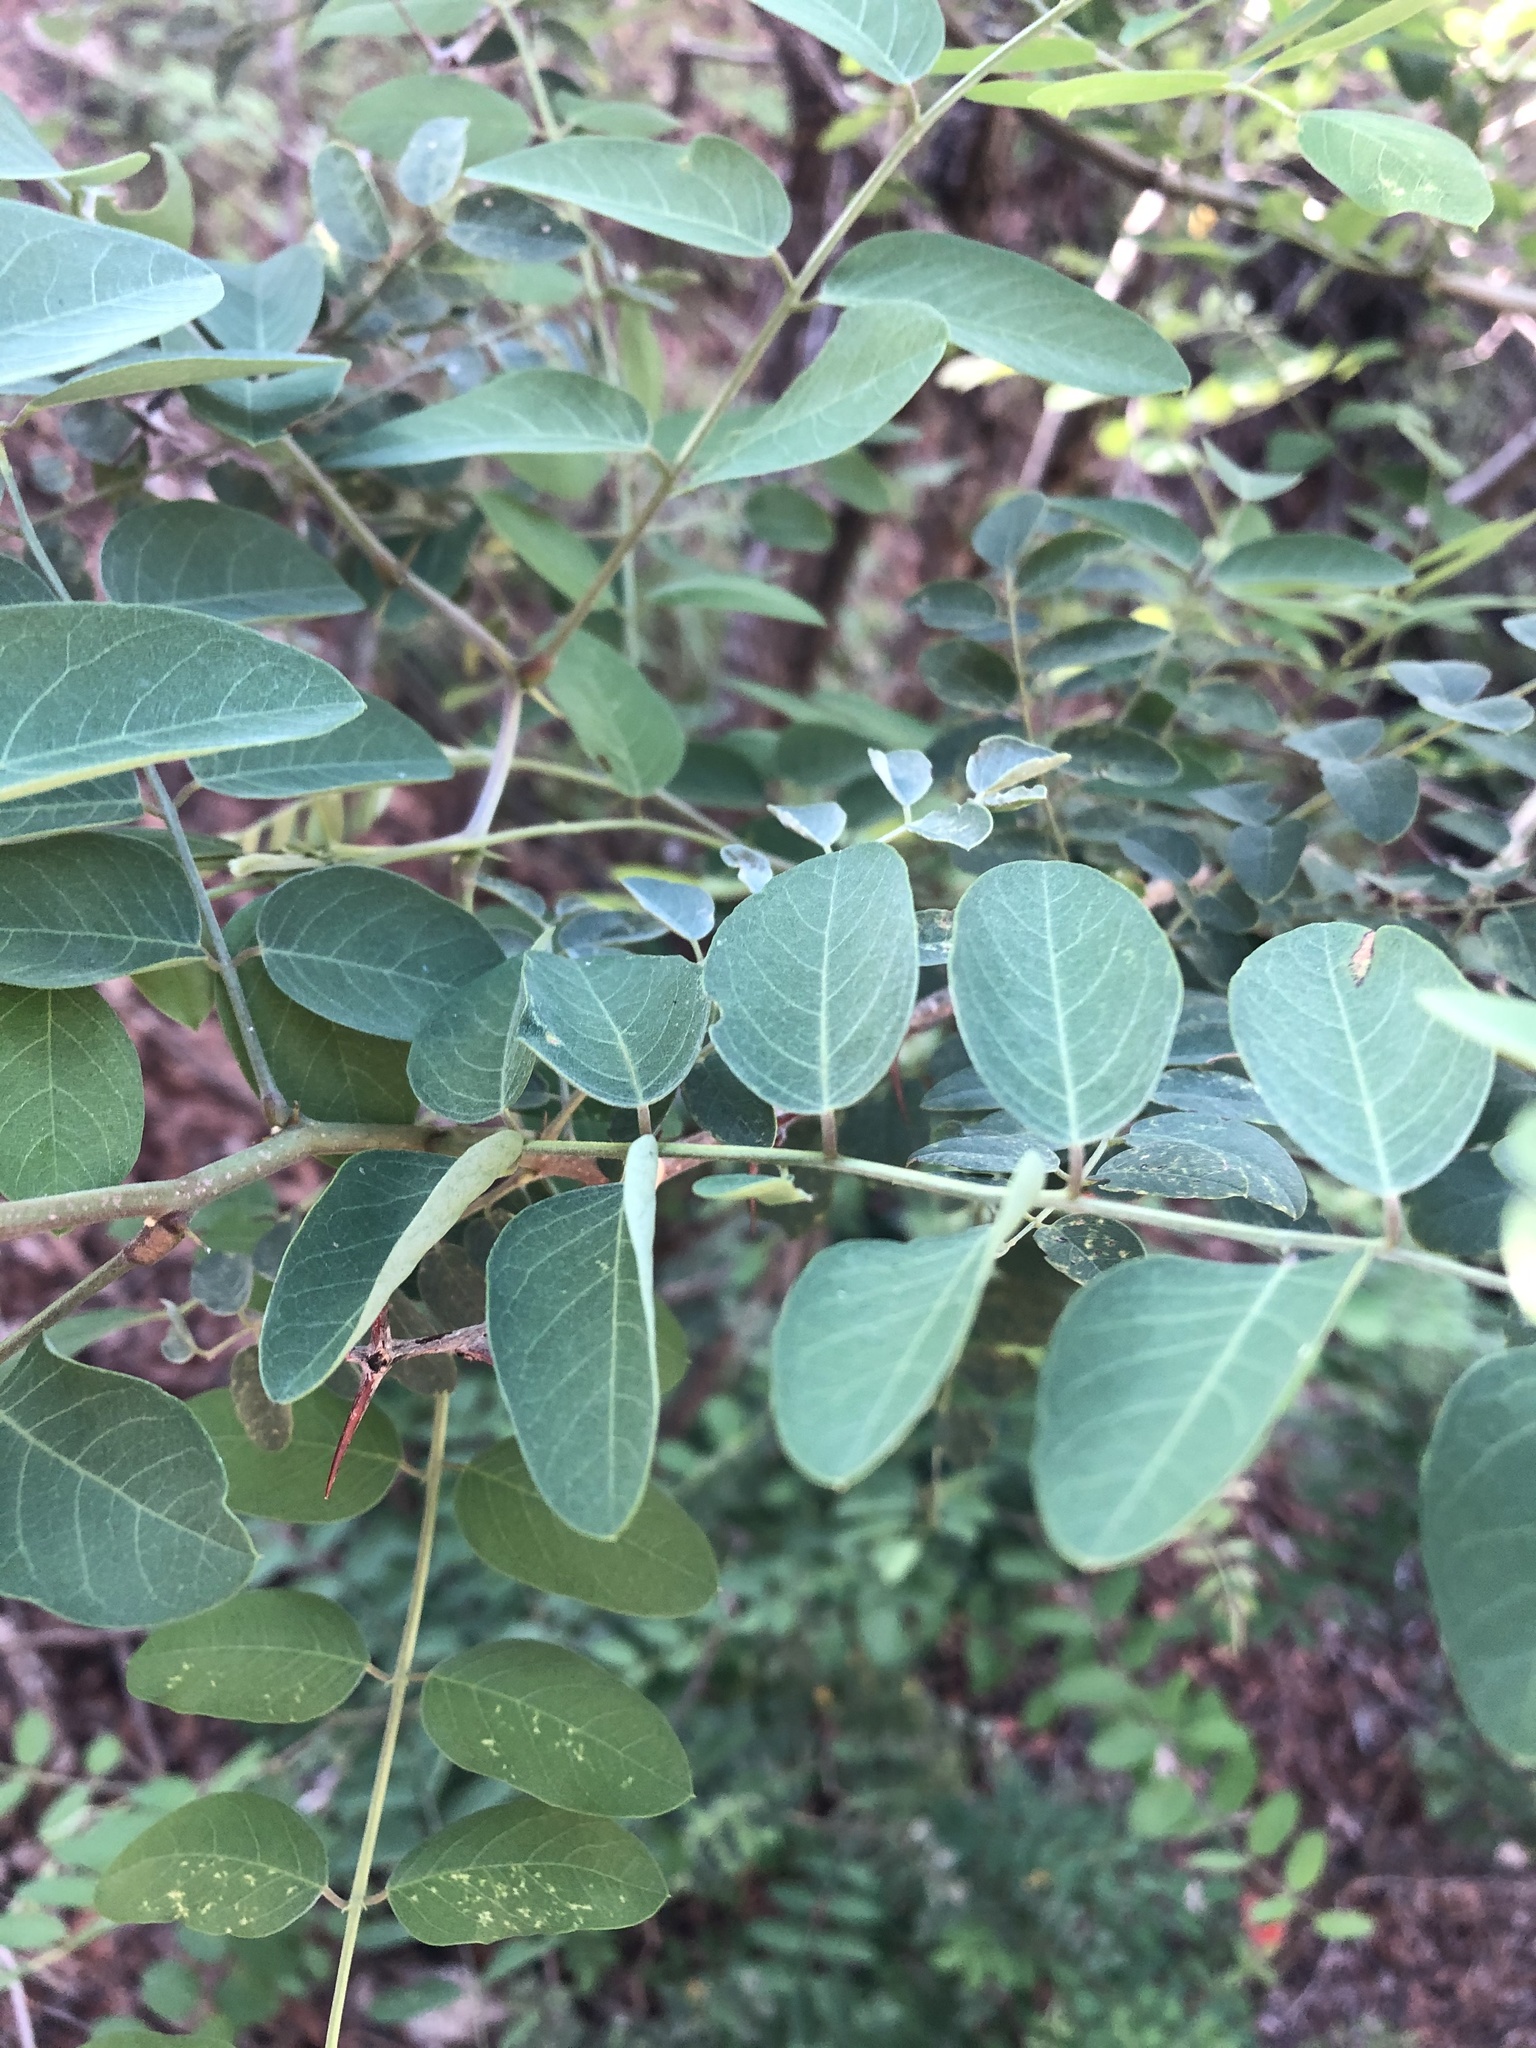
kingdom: Plantae
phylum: Tracheophyta
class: Magnoliopsida
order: Fabales
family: Fabaceae
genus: Robinia
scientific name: Robinia neomexicana
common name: New mexico locust
